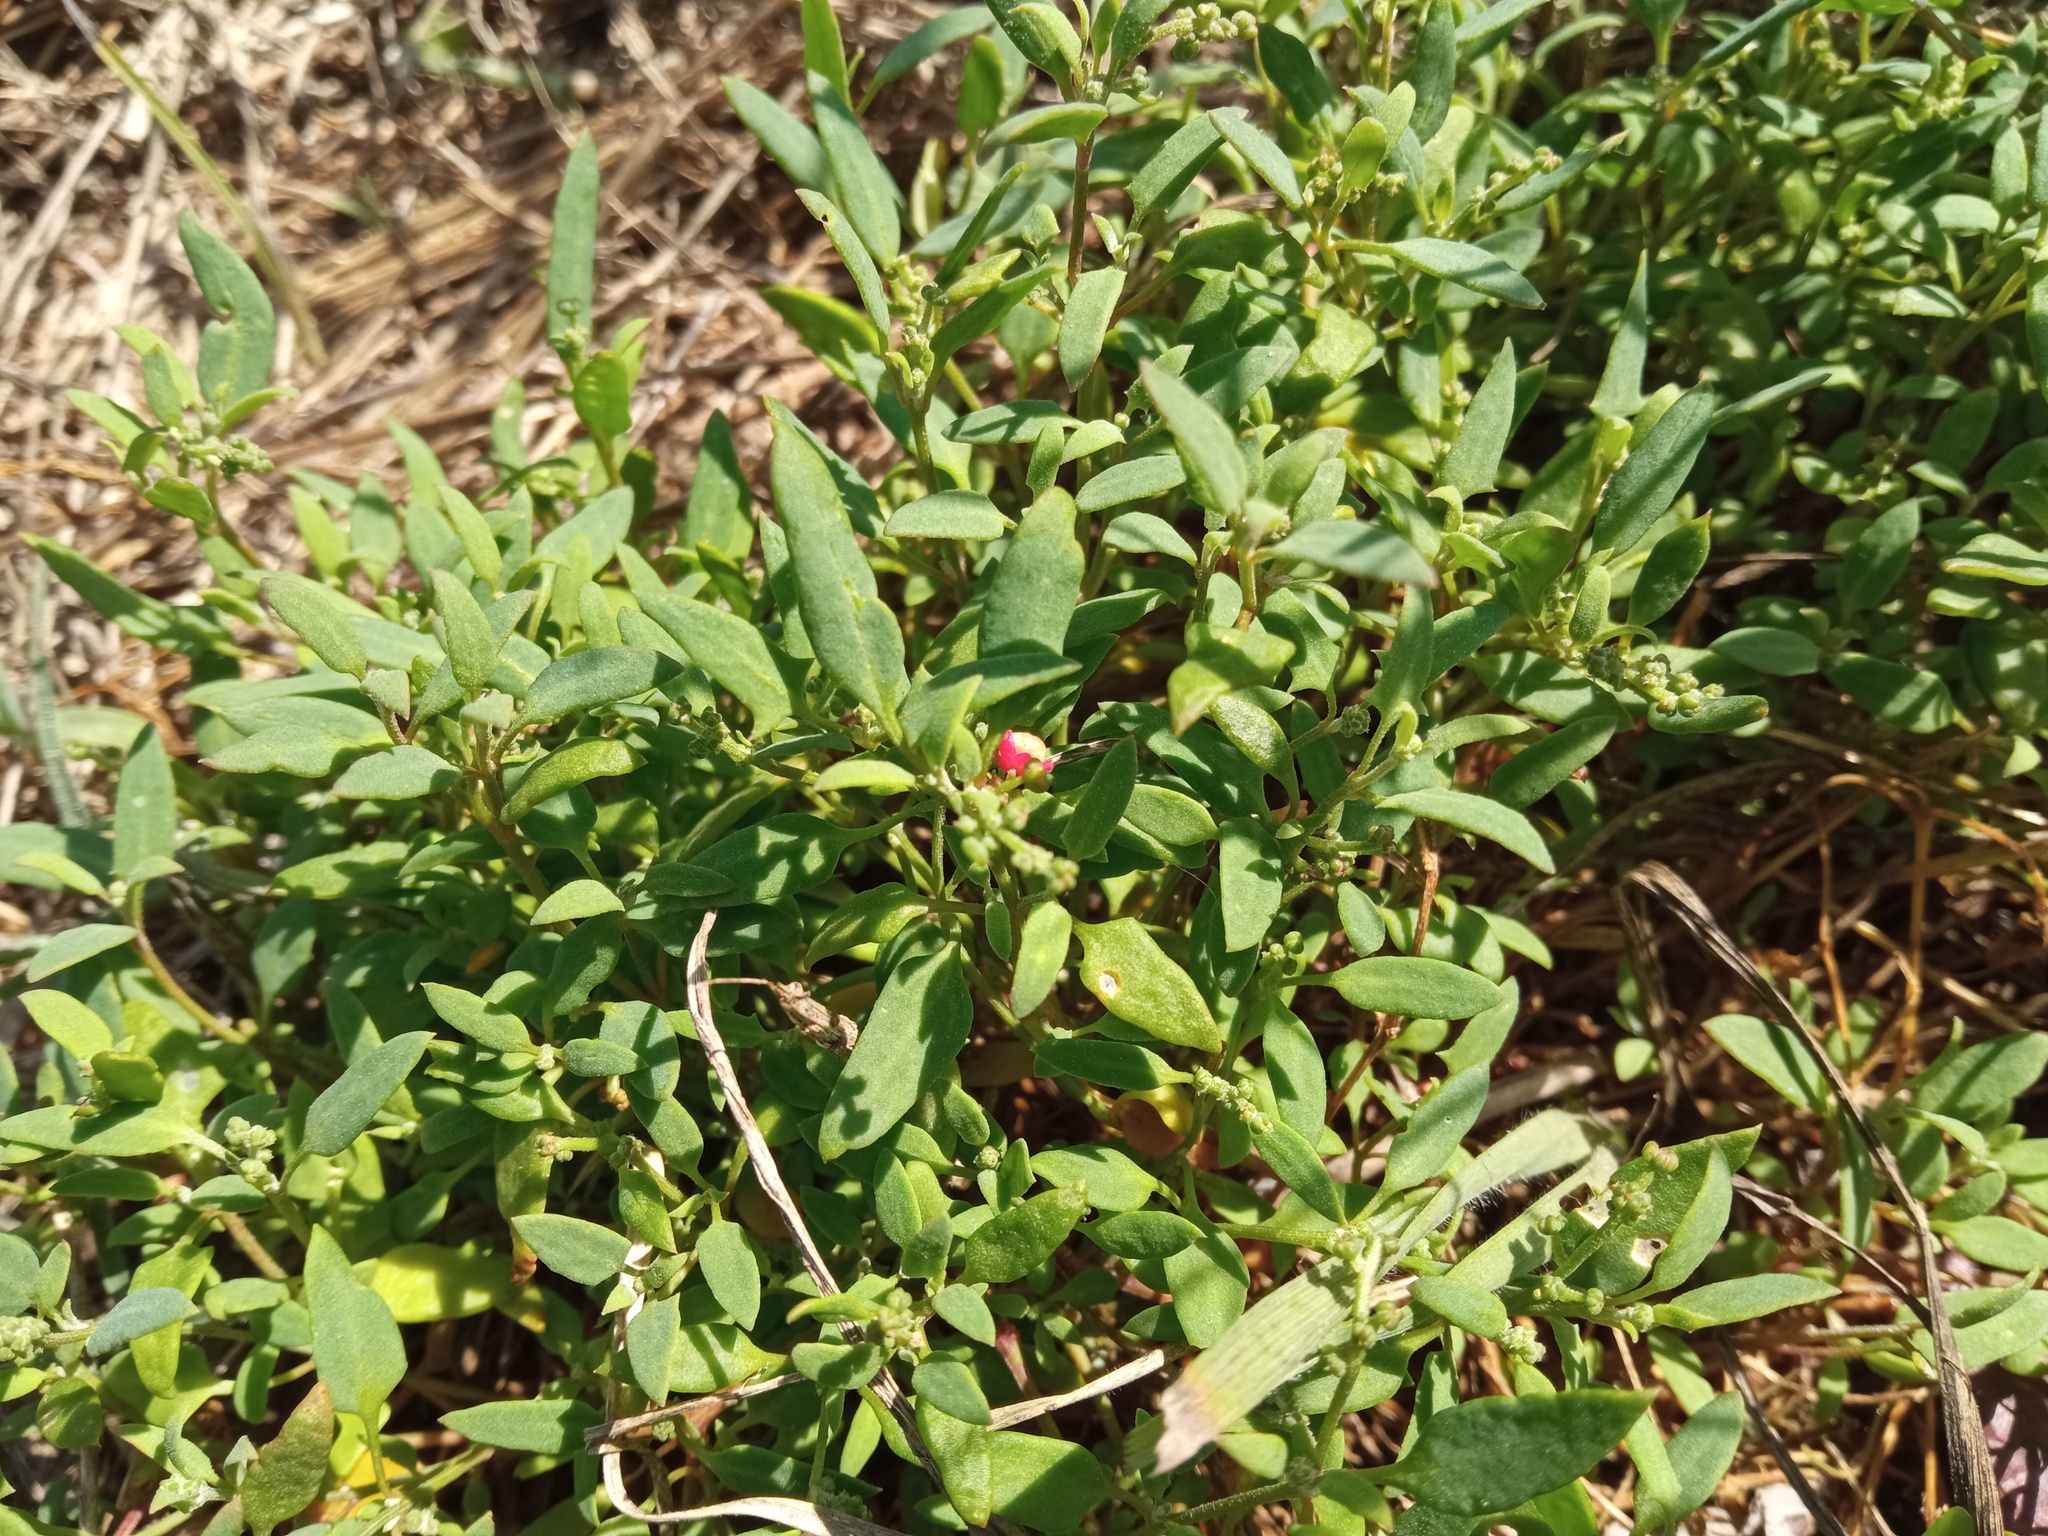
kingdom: Plantae
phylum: Tracheophyta
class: Magnoliopsida
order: Caryophyllales
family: Amaranthaceae
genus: Chenopodium
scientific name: Chenopodium nutans
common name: Climbing-saltbush
